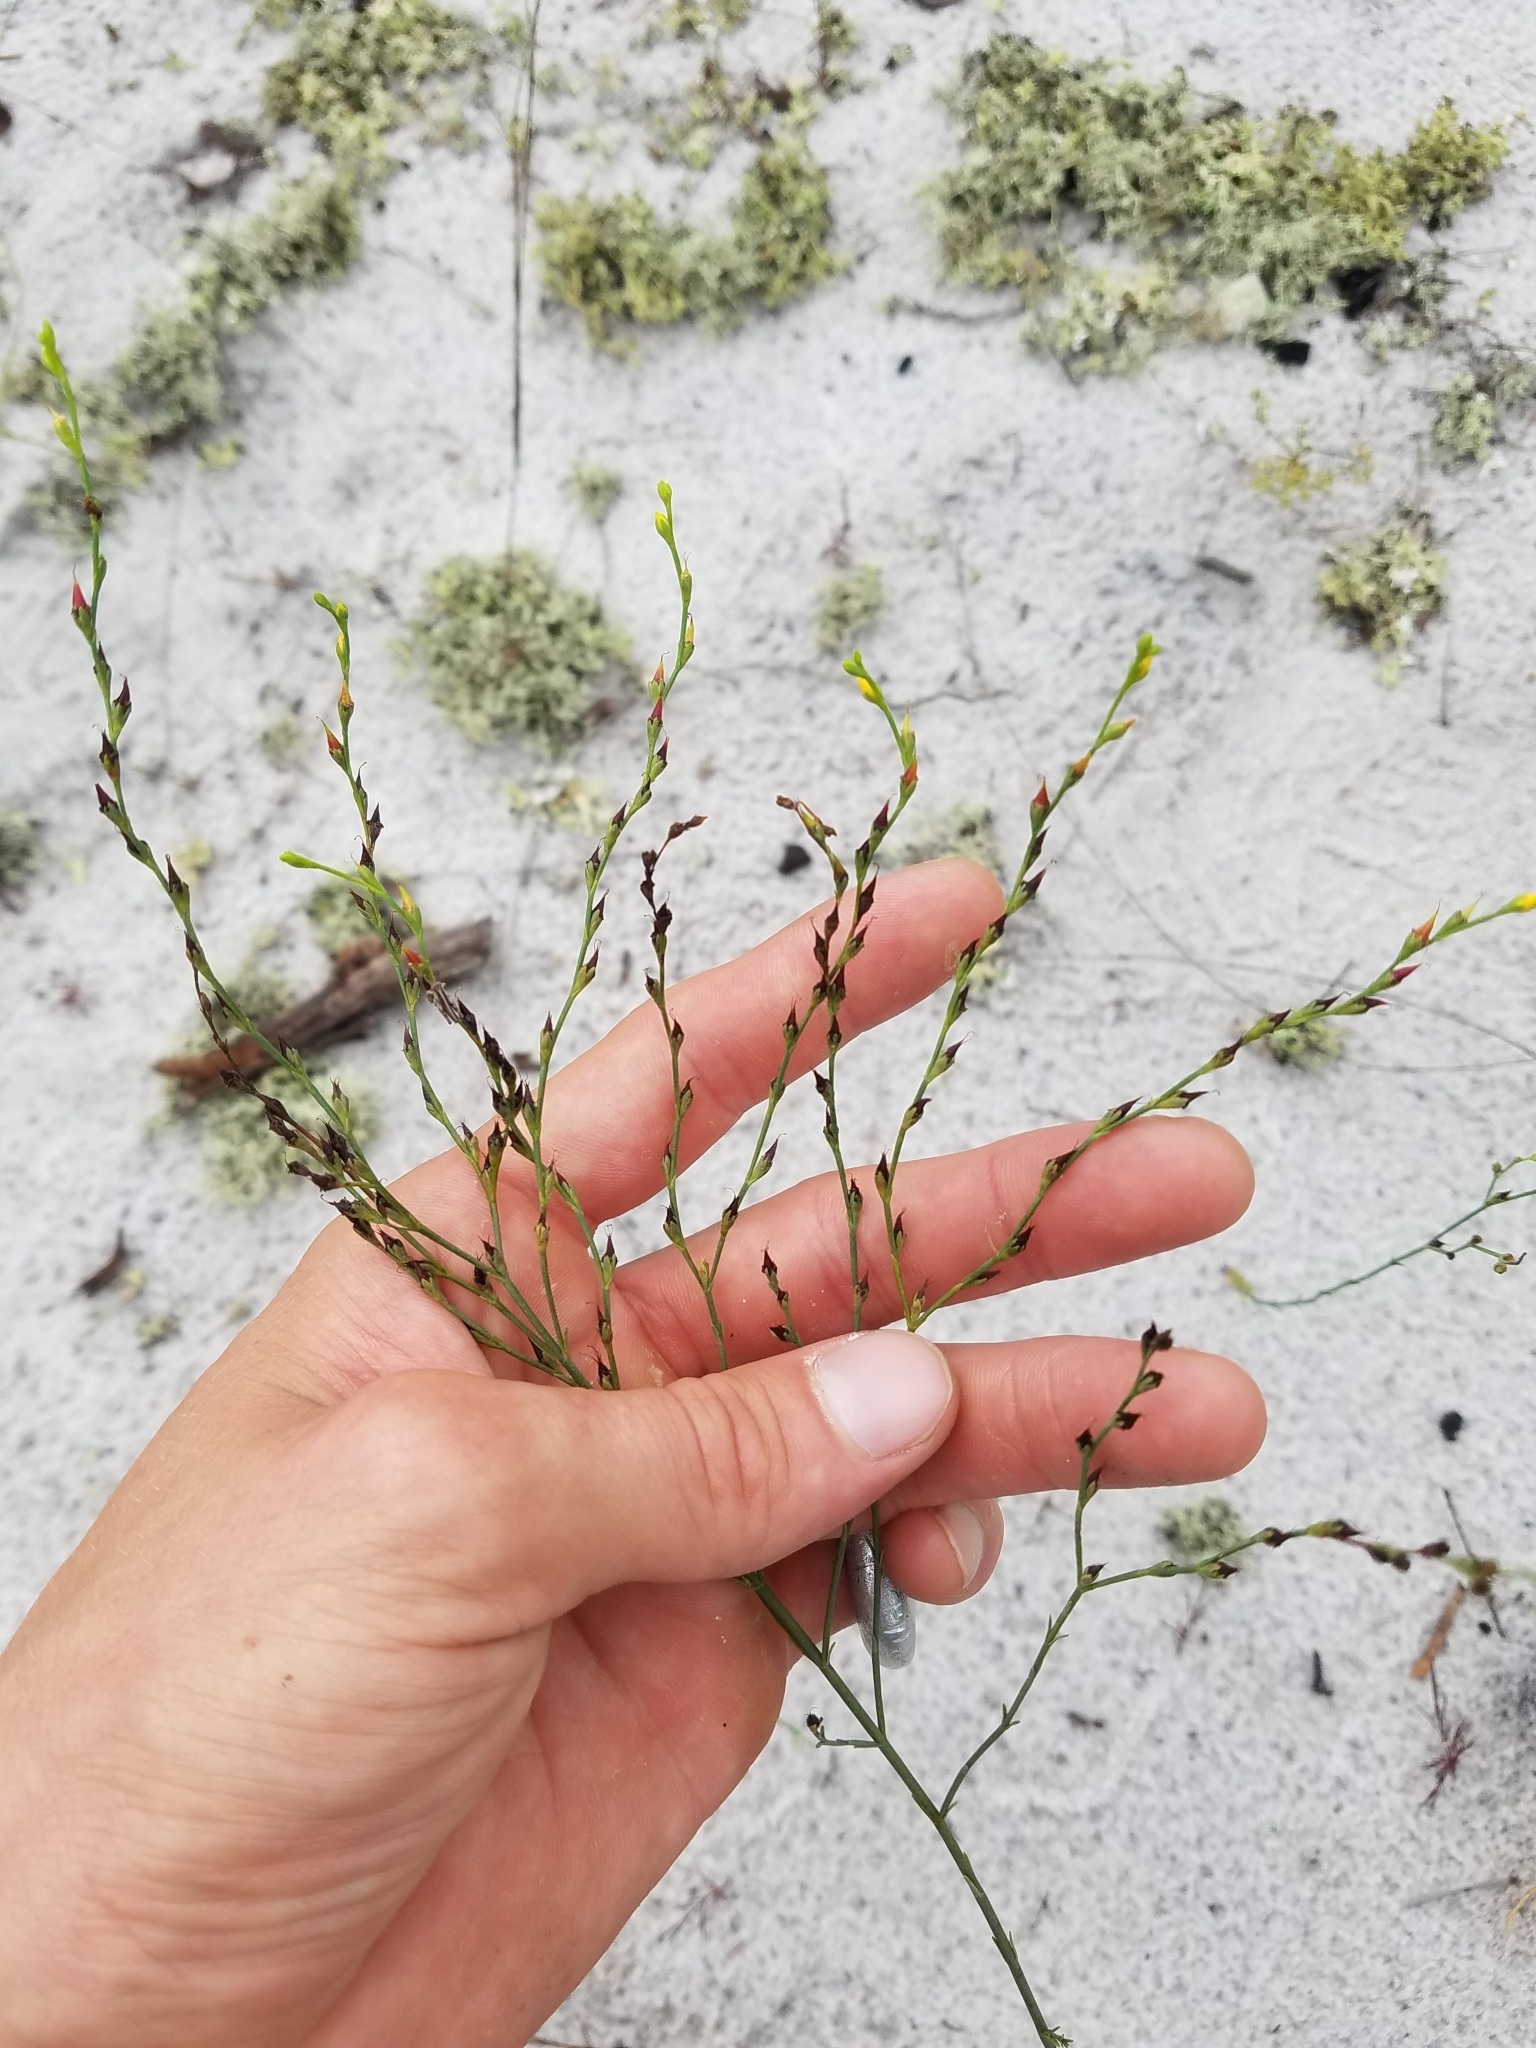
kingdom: Plantae
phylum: Tracheophyta
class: Magnoliopsida
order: Malpighiales
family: Hypericaceae
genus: Hypericum
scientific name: Hypericum cumulicola
